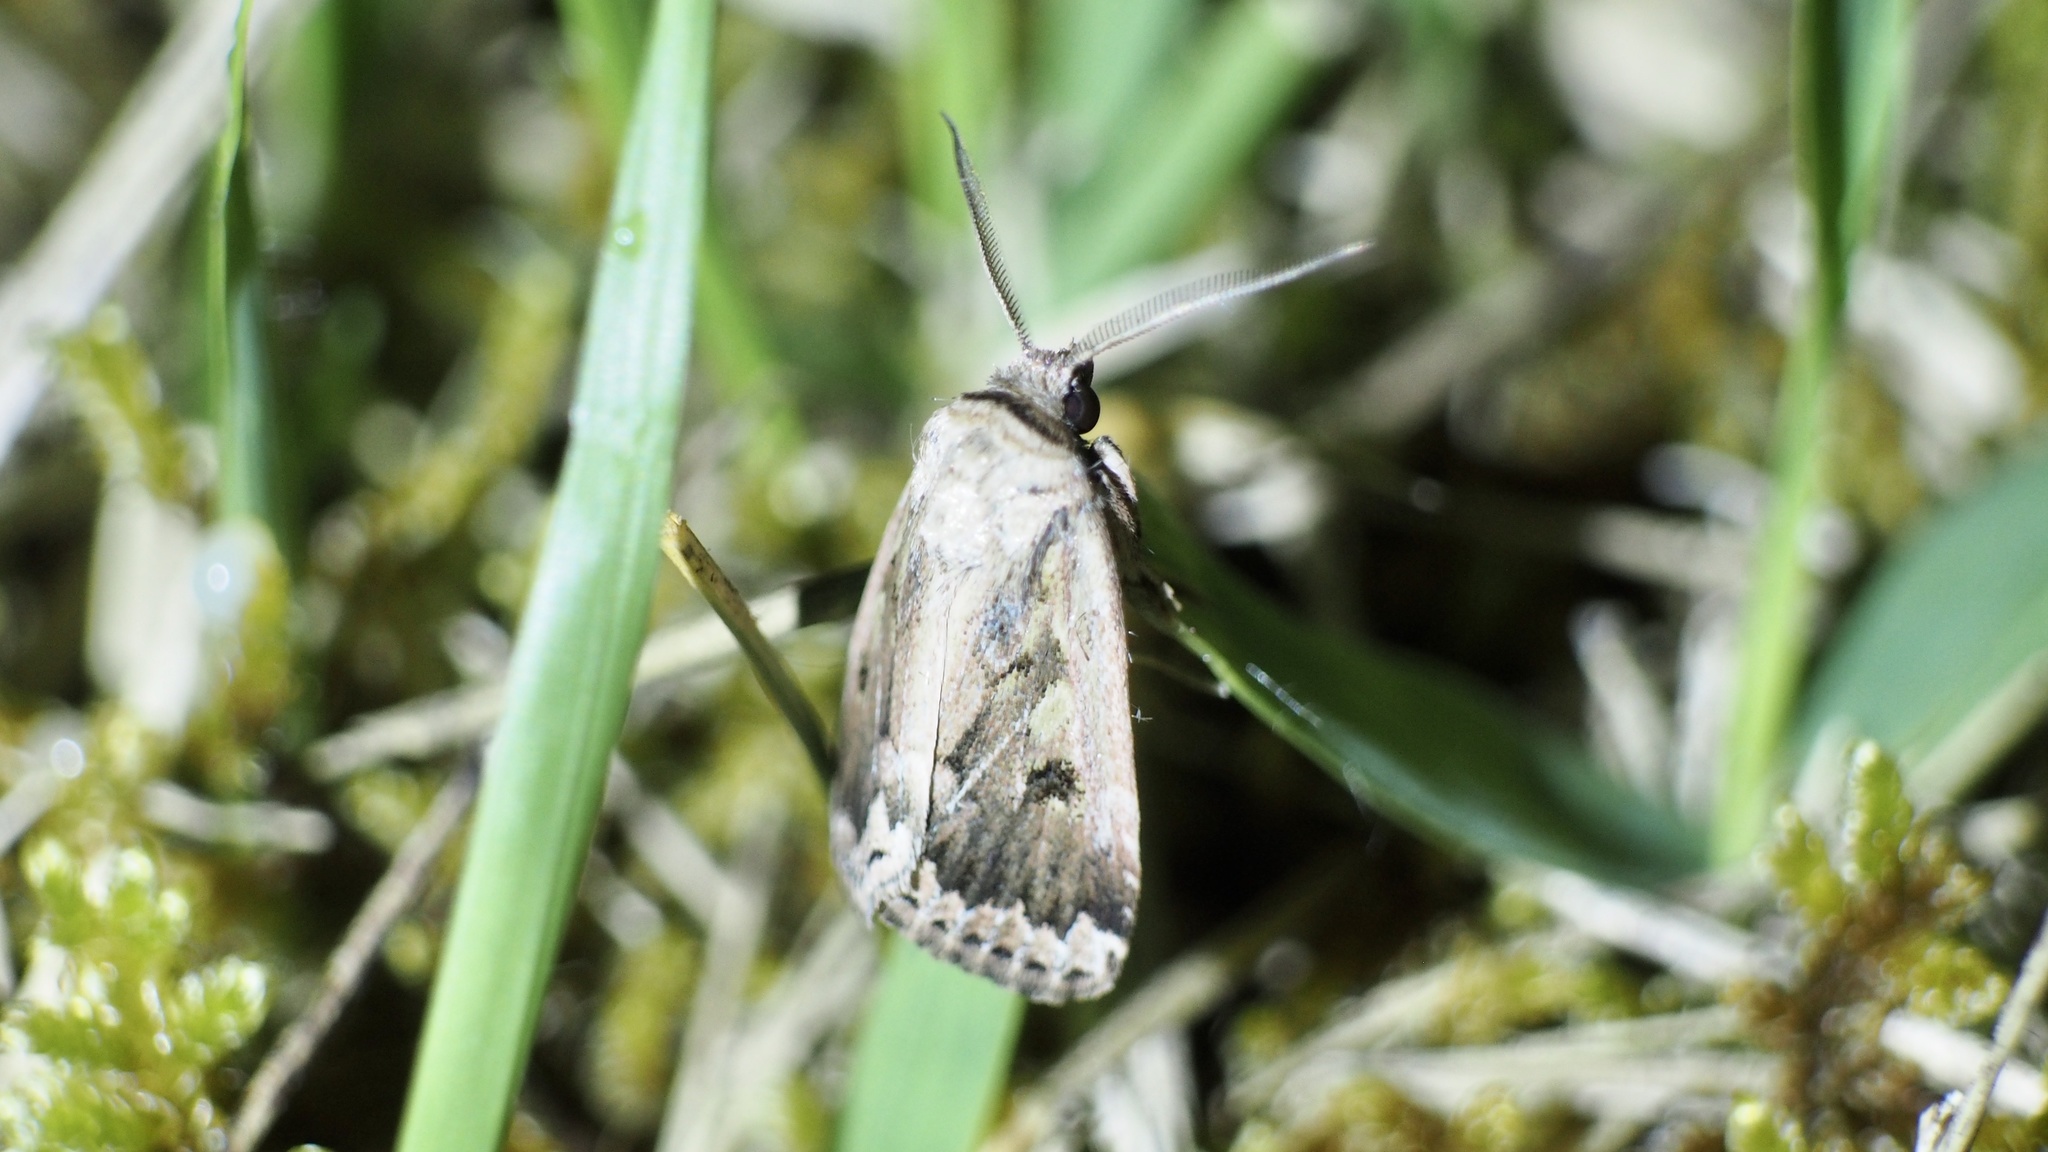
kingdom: Animalia
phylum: Arthropoda
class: Insecta
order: Lepidoptera
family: Noctuidae
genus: Spodoptera
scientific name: Spodoptera depravata
